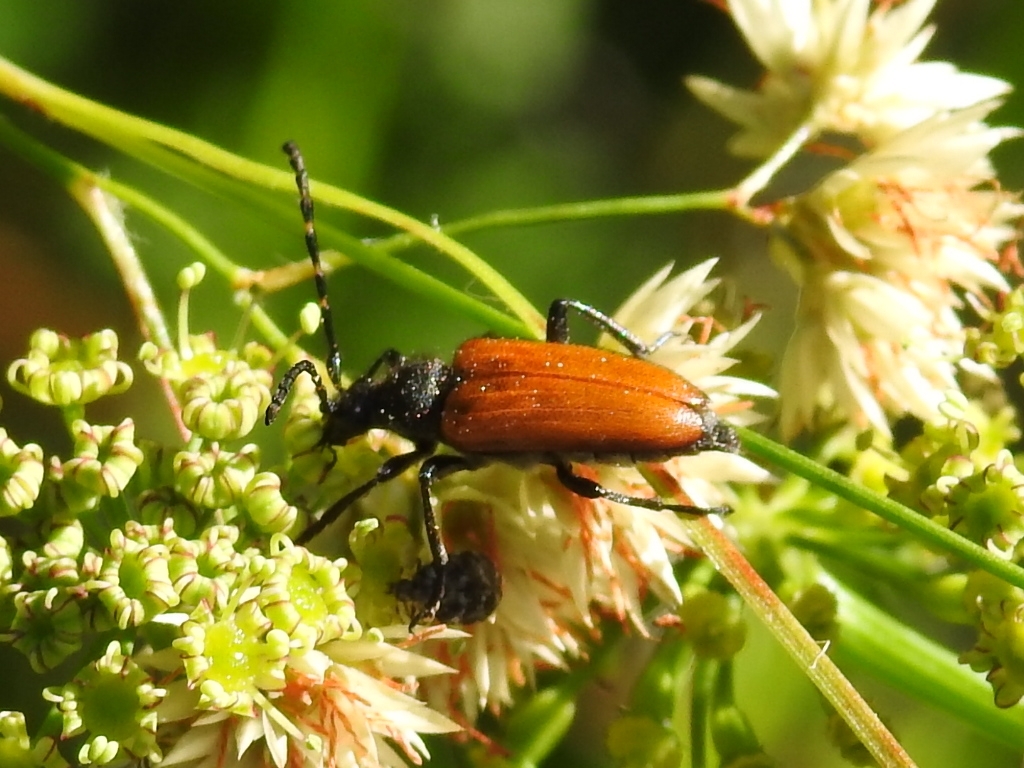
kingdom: Animalia
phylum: Arthropoda
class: Insecta
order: Coleoptera
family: Cerambycidae
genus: Paracorymbia
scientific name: Paracorymbia hybrida
